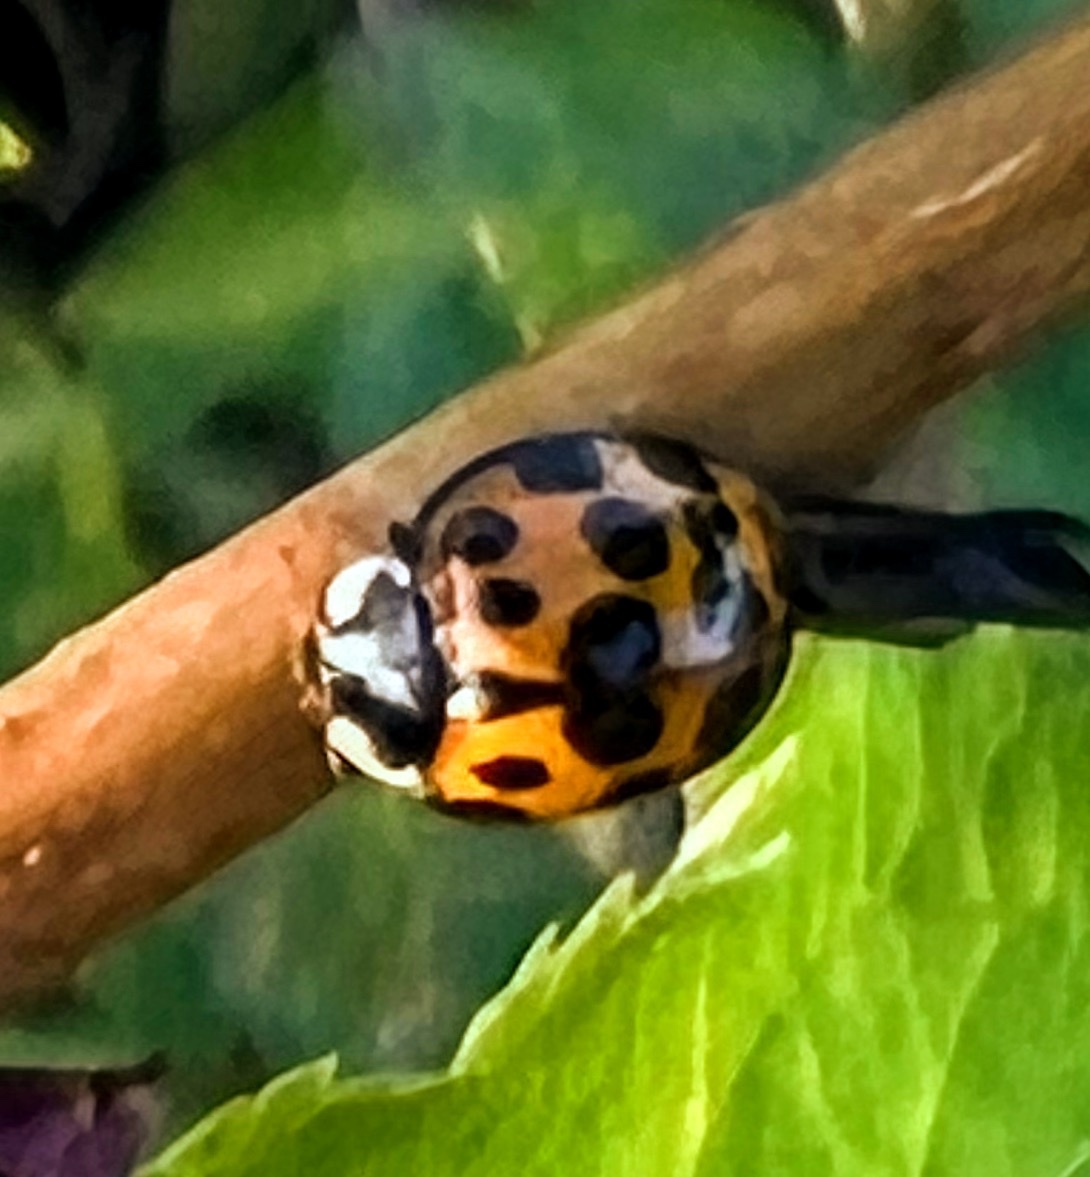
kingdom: Animalia
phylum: Arthropoda
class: Insecta
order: Coleoptera
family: Coccinellidae
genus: Harmonia
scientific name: Harmonia axyridis
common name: Harlequin ladybird
